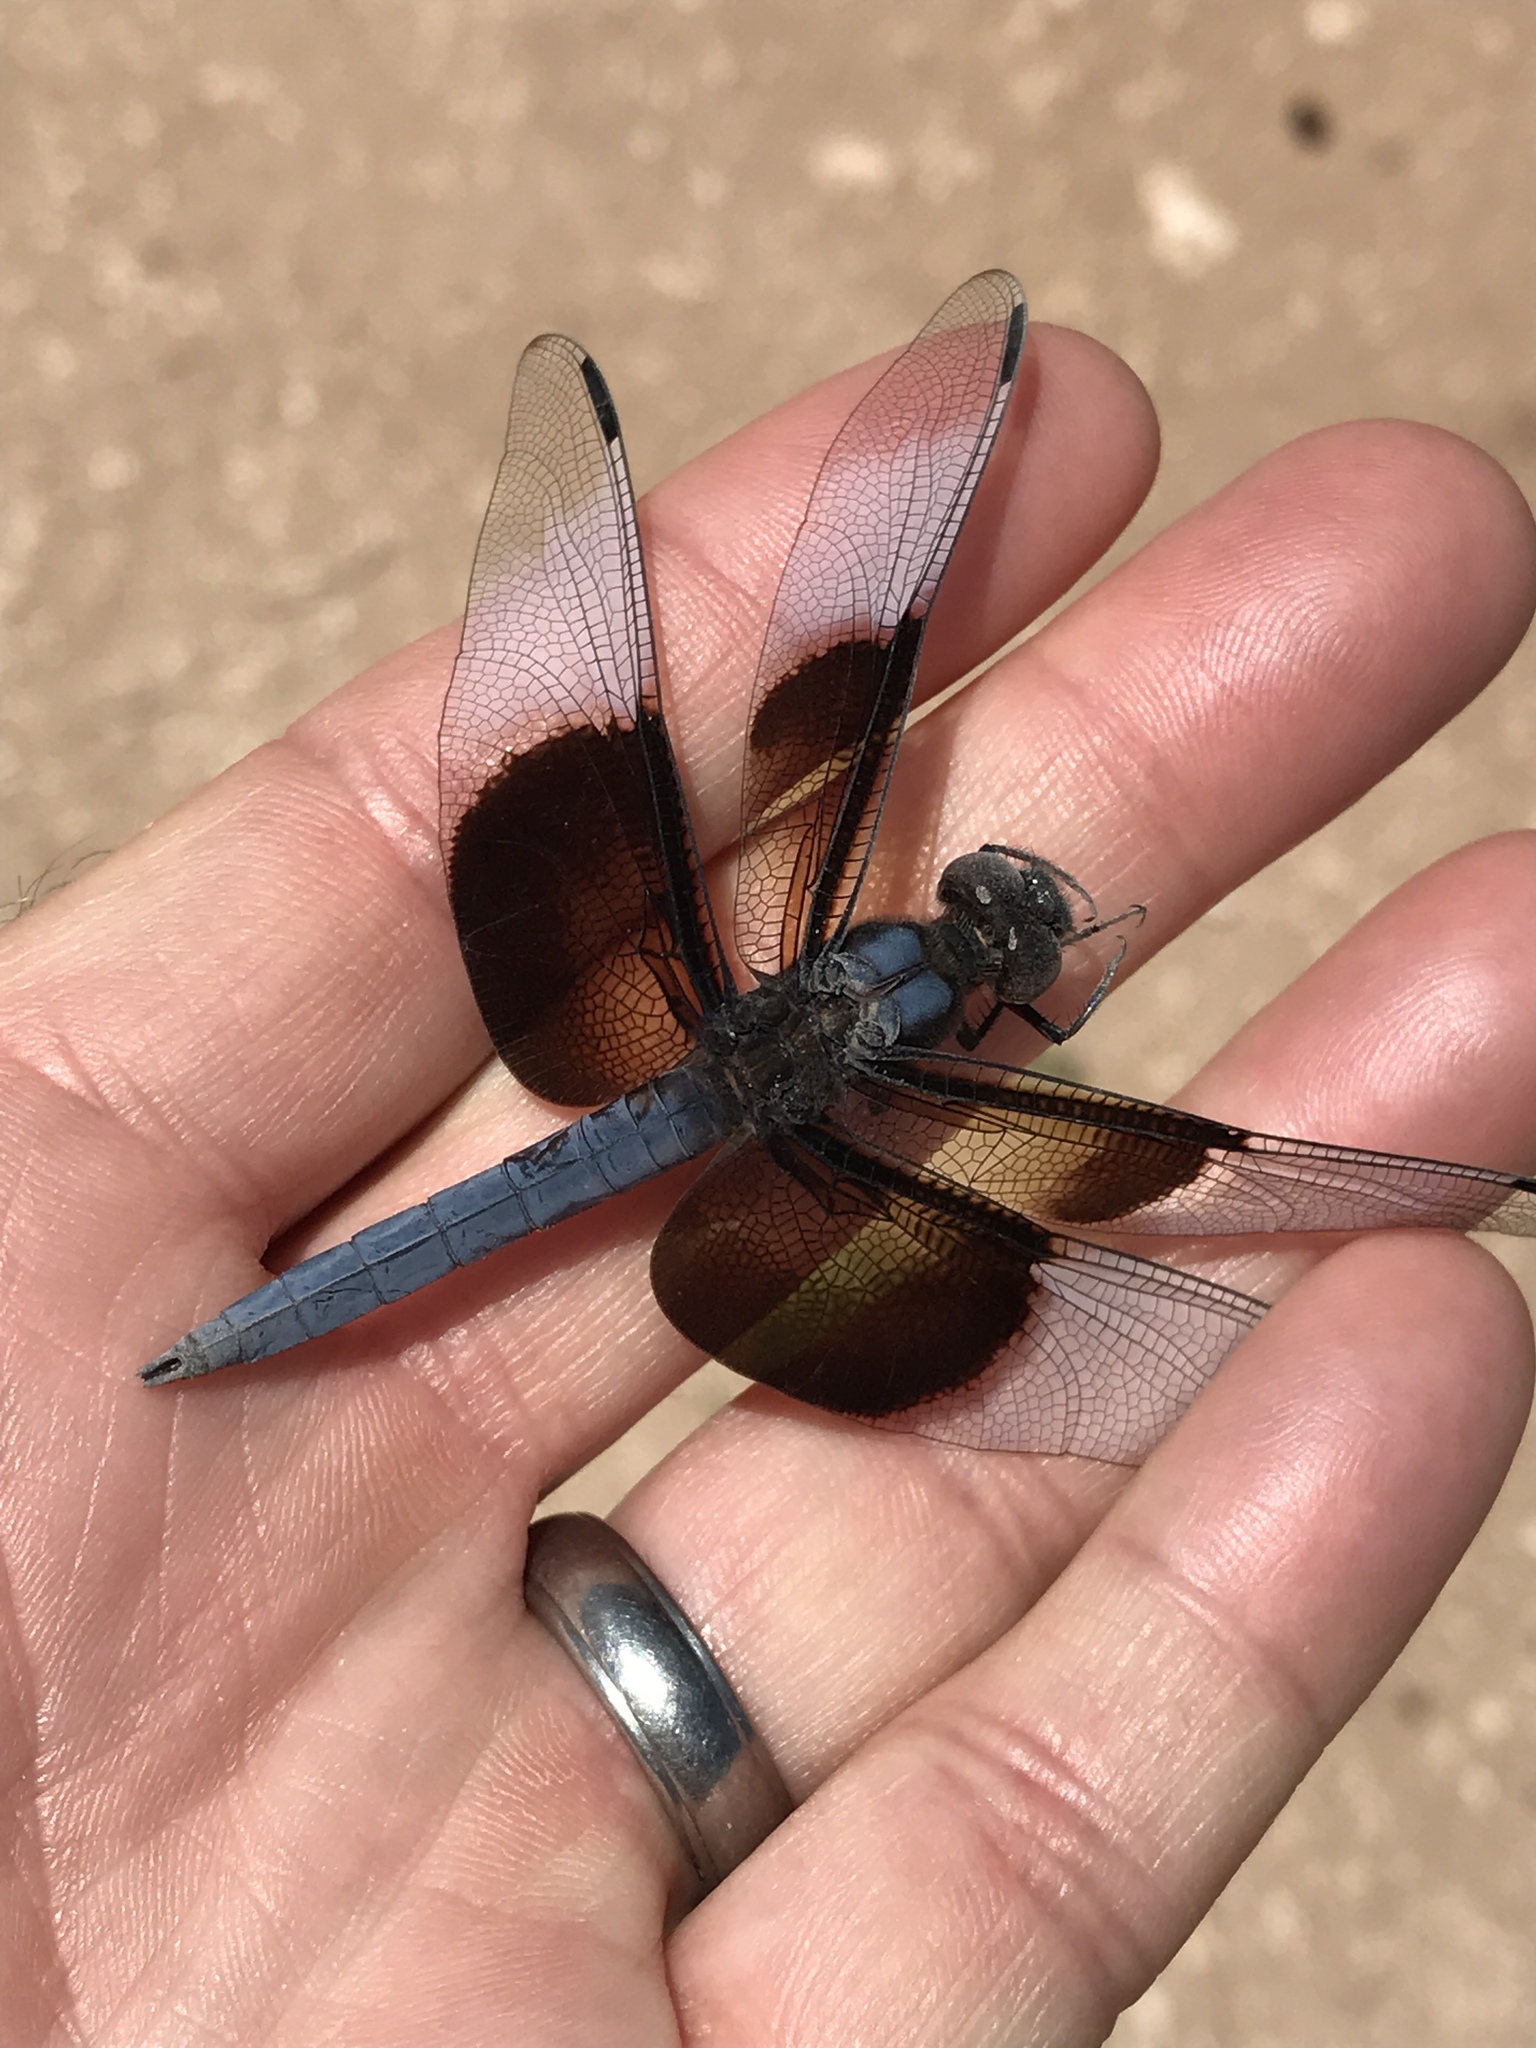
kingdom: Animalia
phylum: Arthropoda
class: Insecta
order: Odonata
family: Libellulidae
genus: Libellula
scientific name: Libellula luctuosa
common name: Widow skimmer
